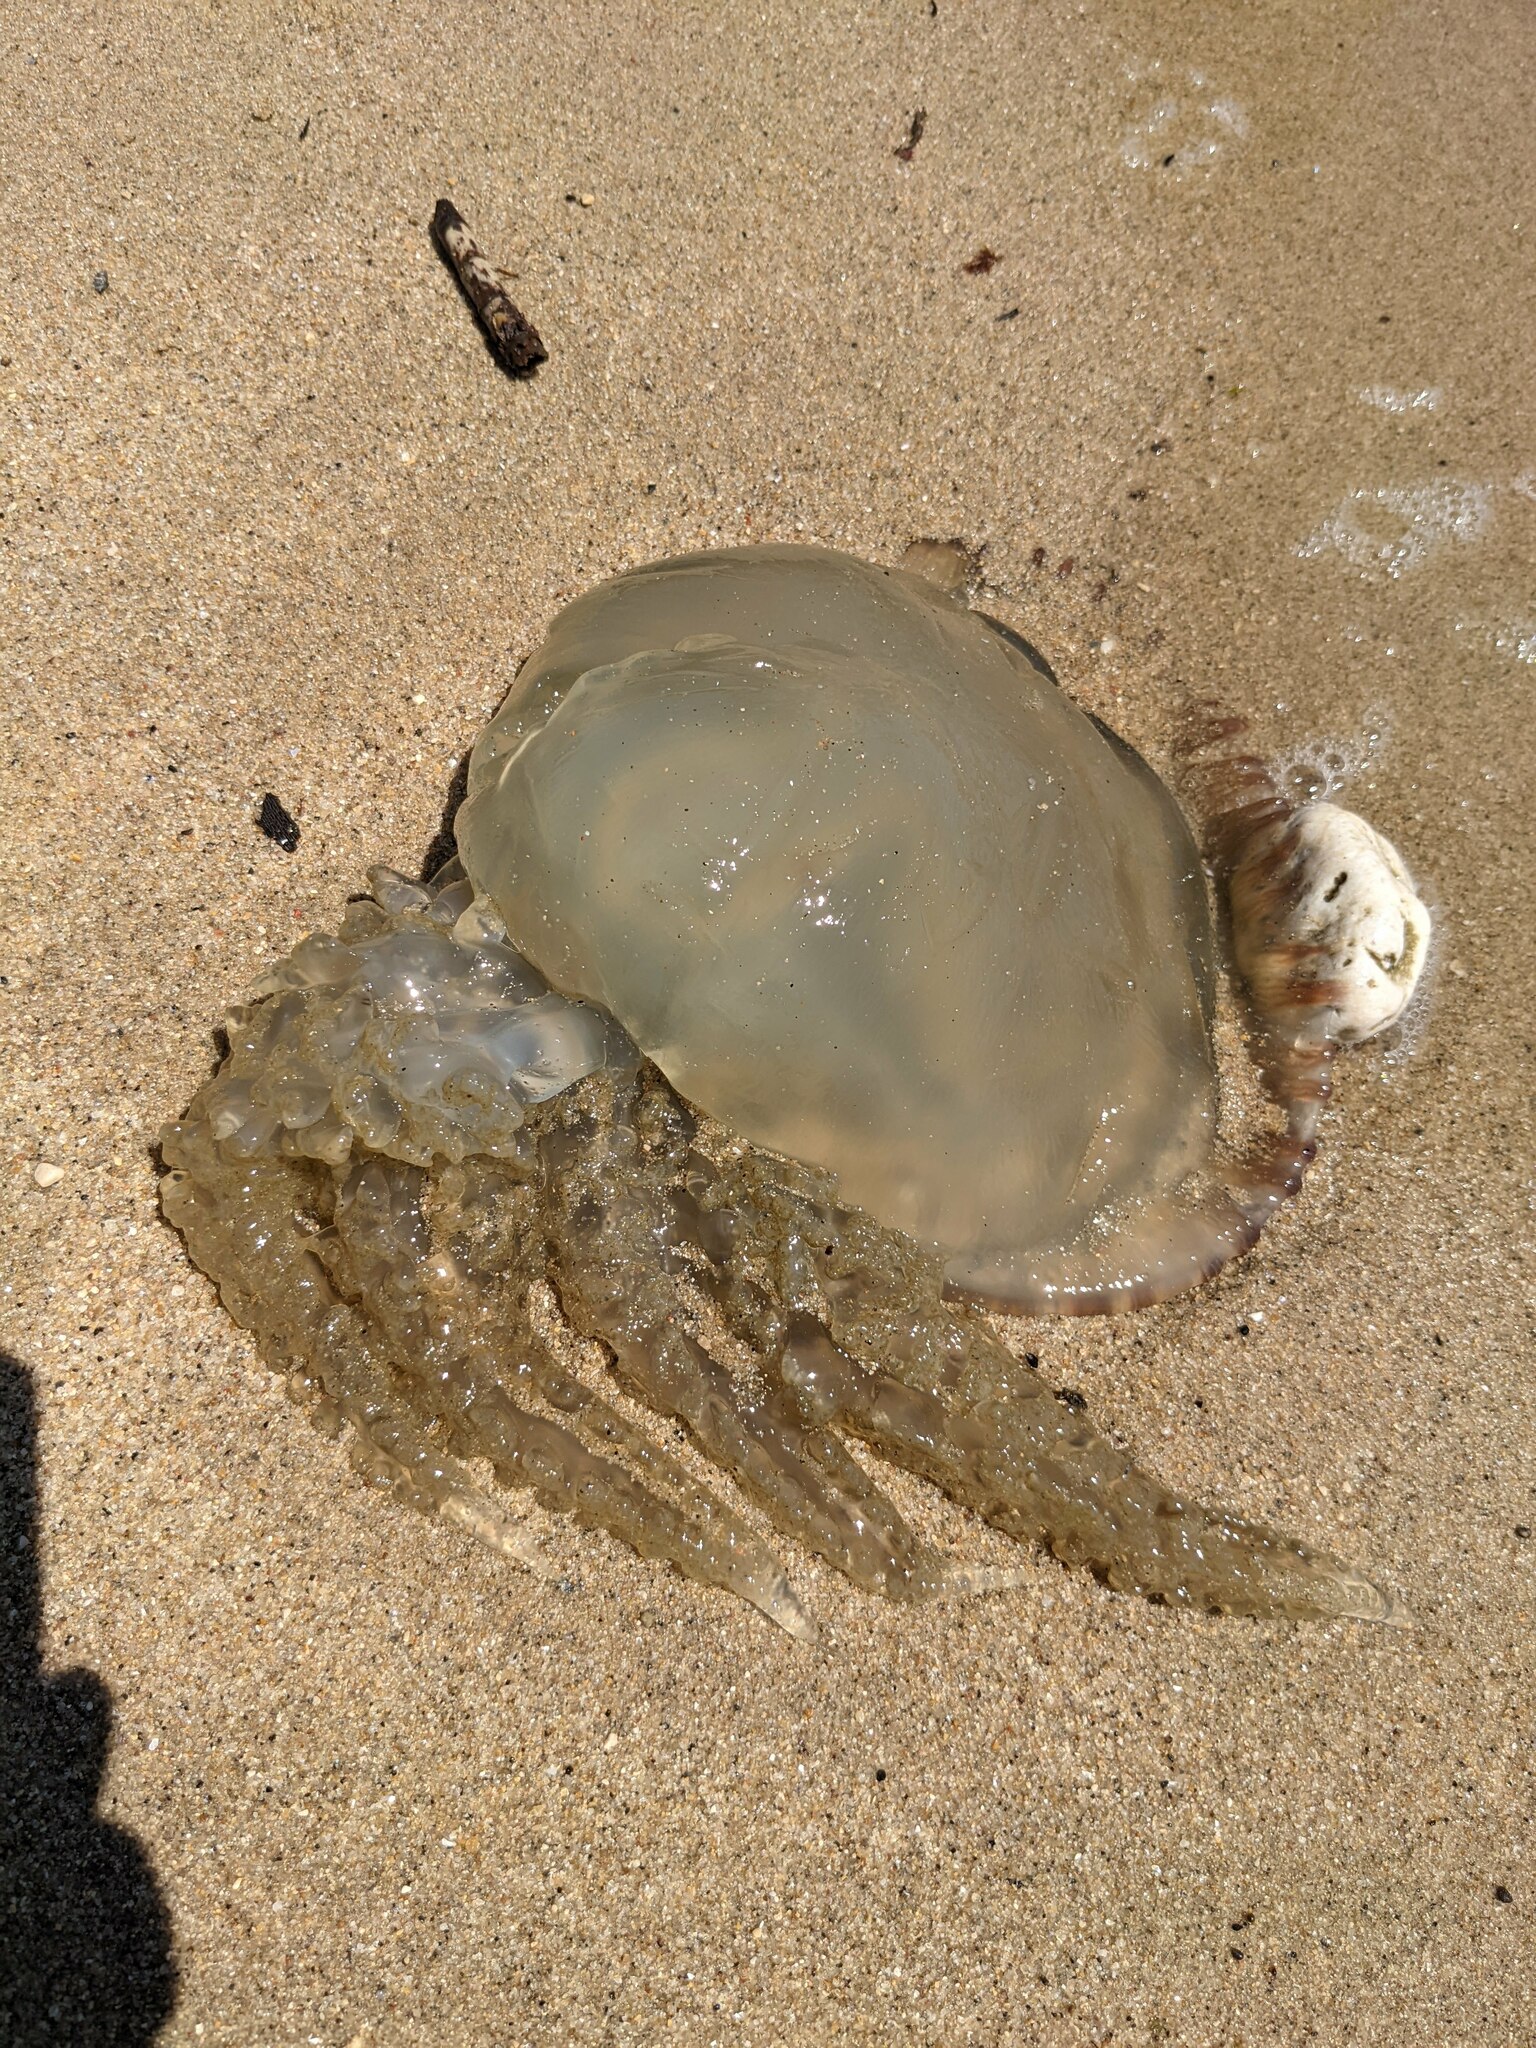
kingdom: Animalia
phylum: Cnidaria
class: Scyphozoa
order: Rhizostomeae
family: Catostylidae
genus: Catostylus
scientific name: Catostylus tagi
